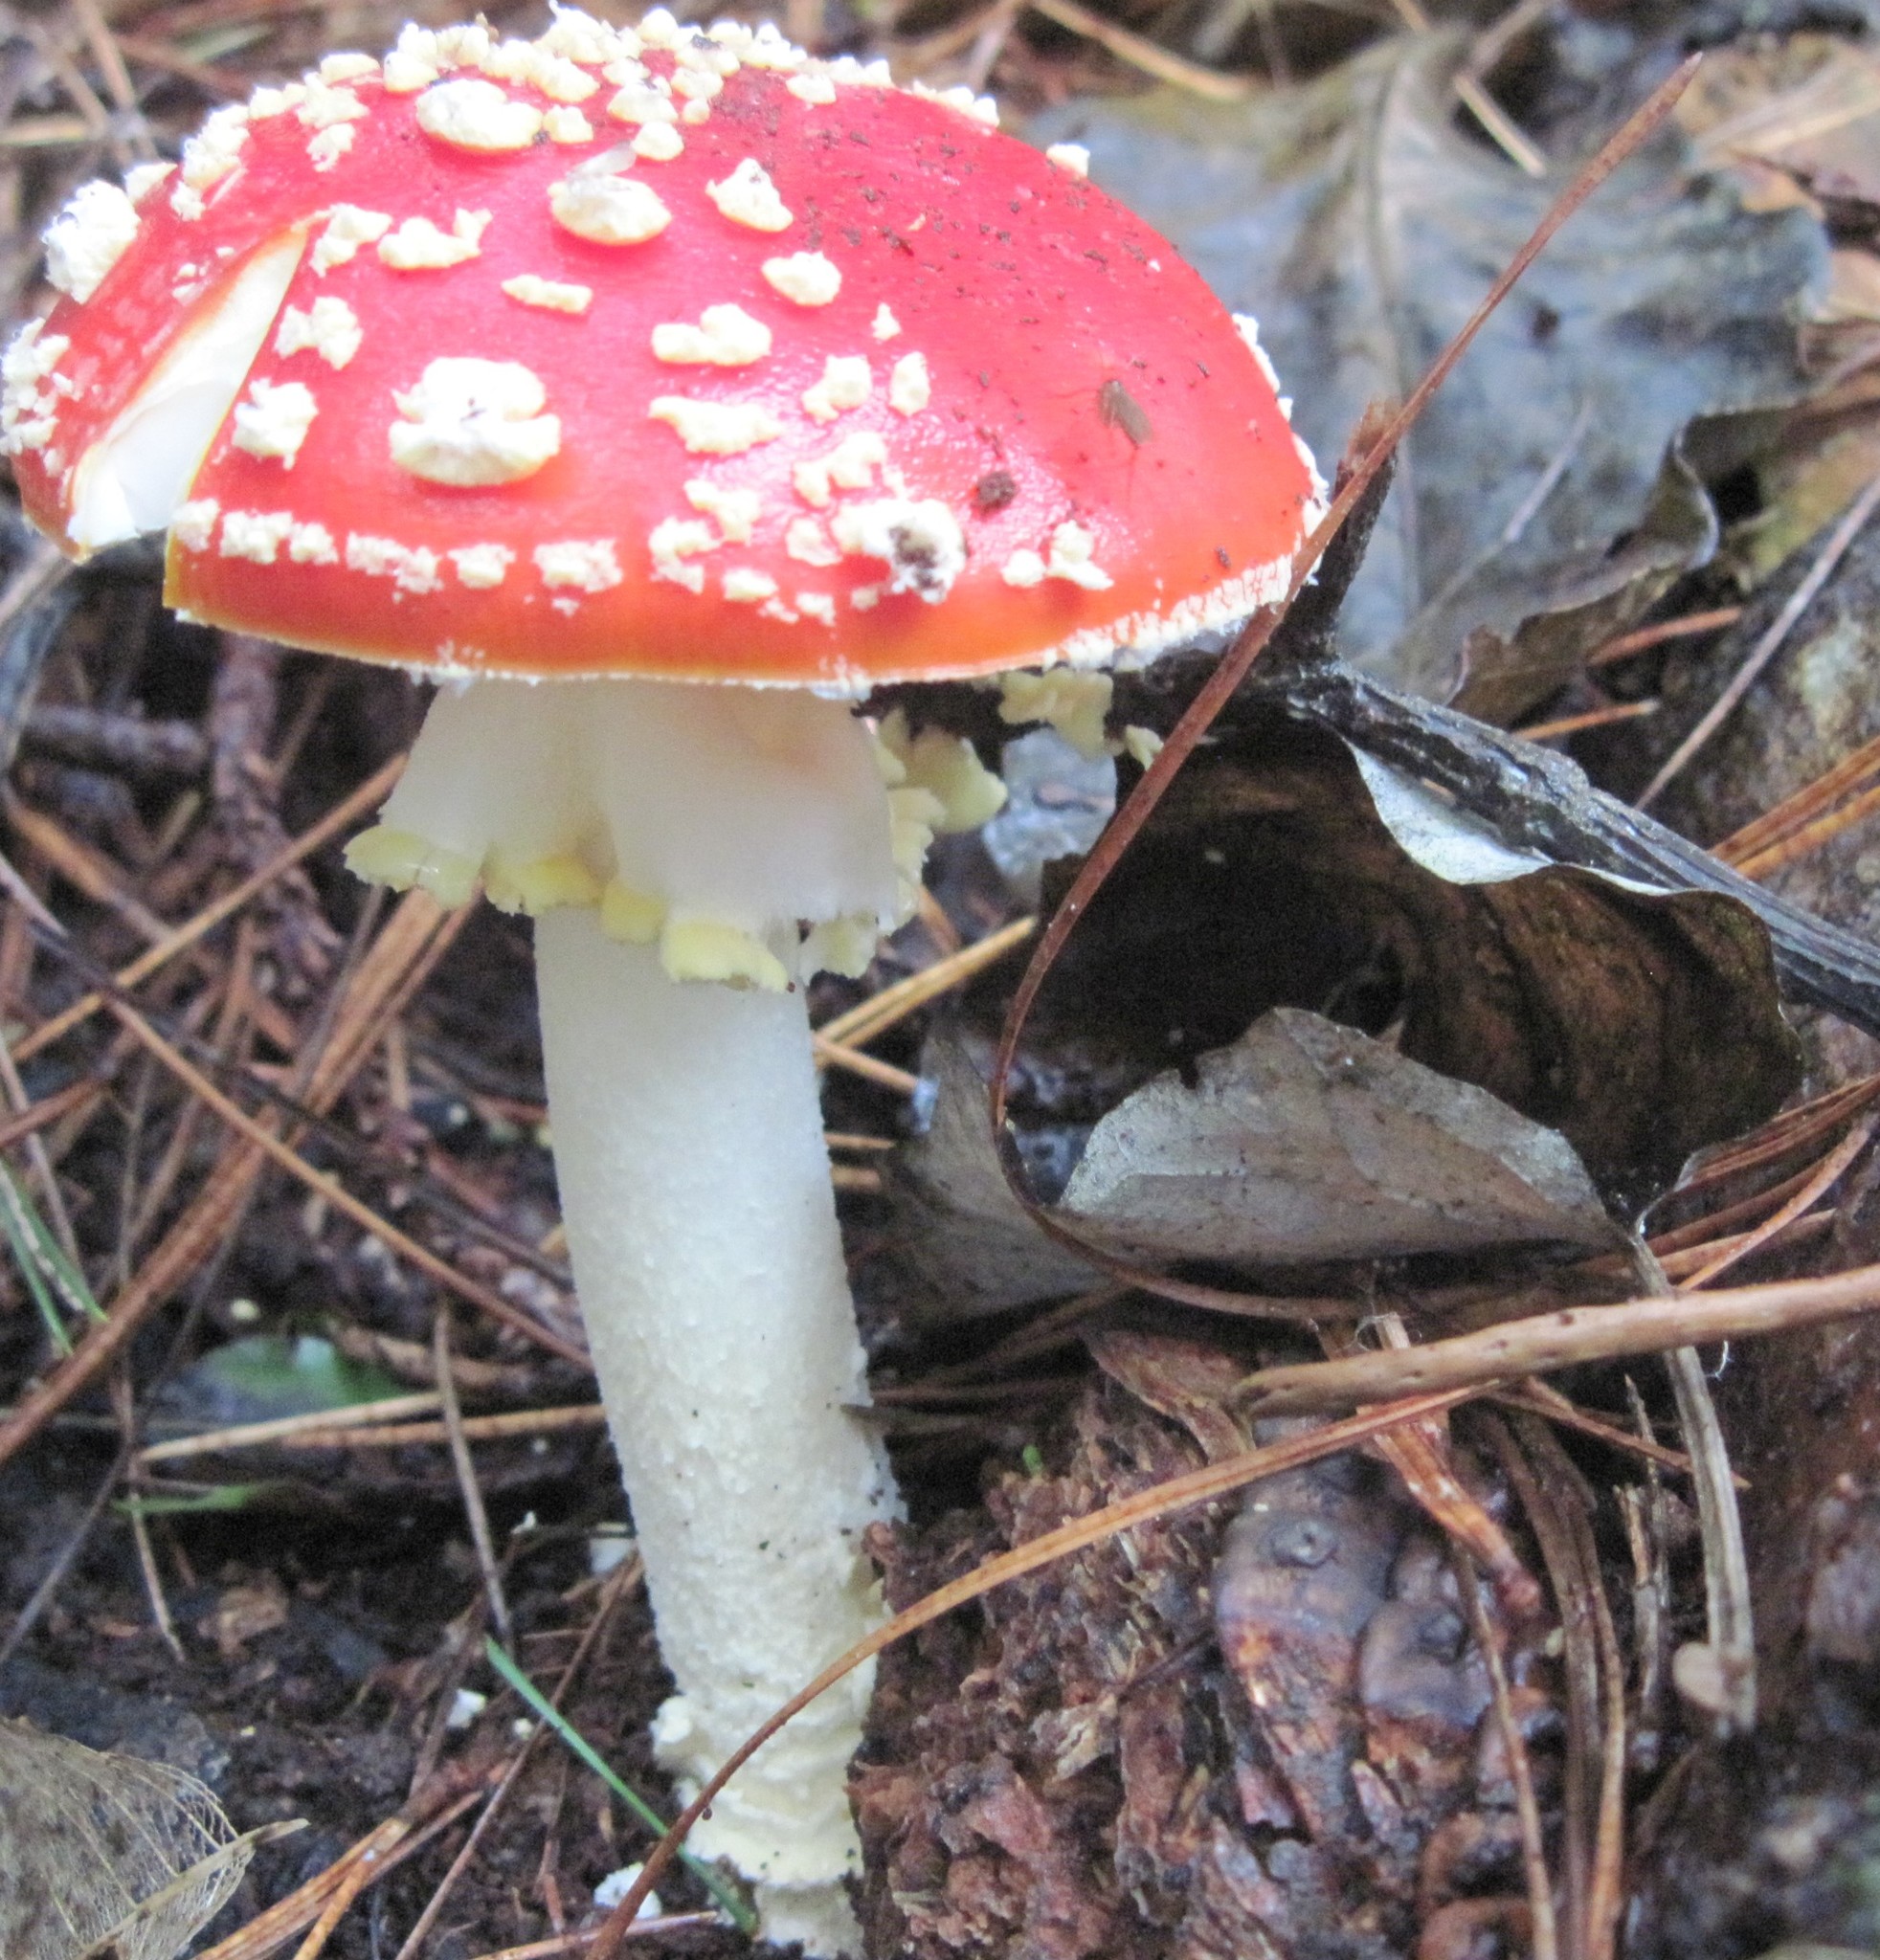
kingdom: Fungi
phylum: Basidiomycota
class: Agaricomycetes
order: Agaricales
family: Amanitaceae
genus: Amanita
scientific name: Amanita muscaria
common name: Fly agaric
